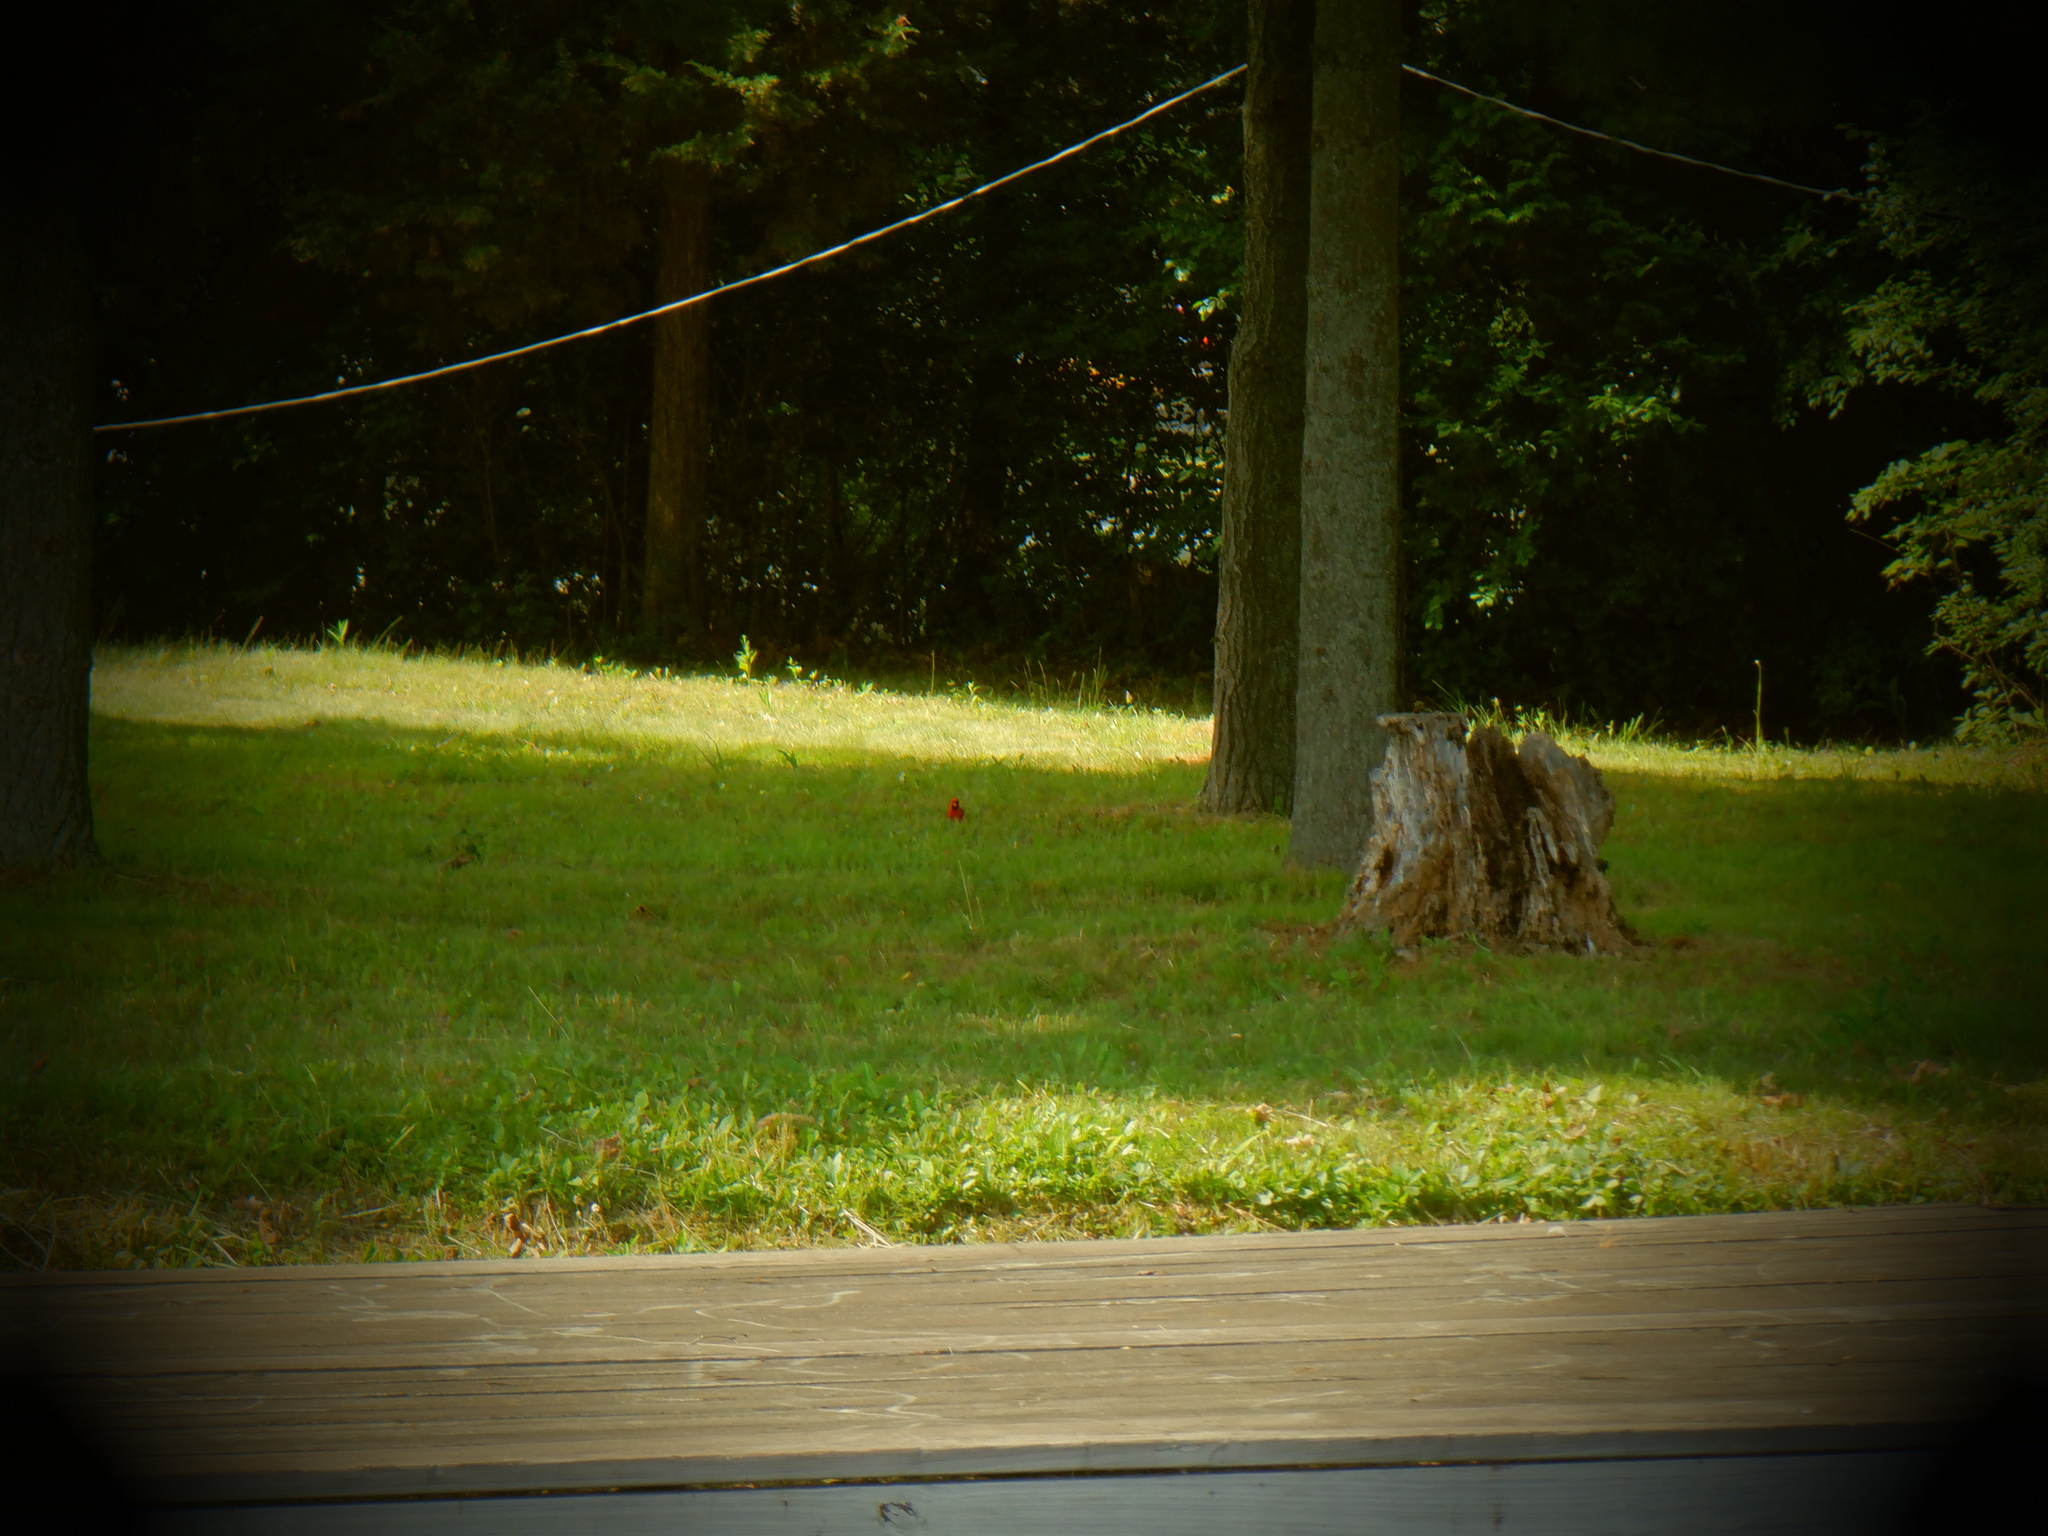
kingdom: Animalia
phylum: Chordata
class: Aves
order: Passeriformes
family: Cardinalidae
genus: Cardinalis
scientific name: Cardinalis cardinalis
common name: Northern cardinal
